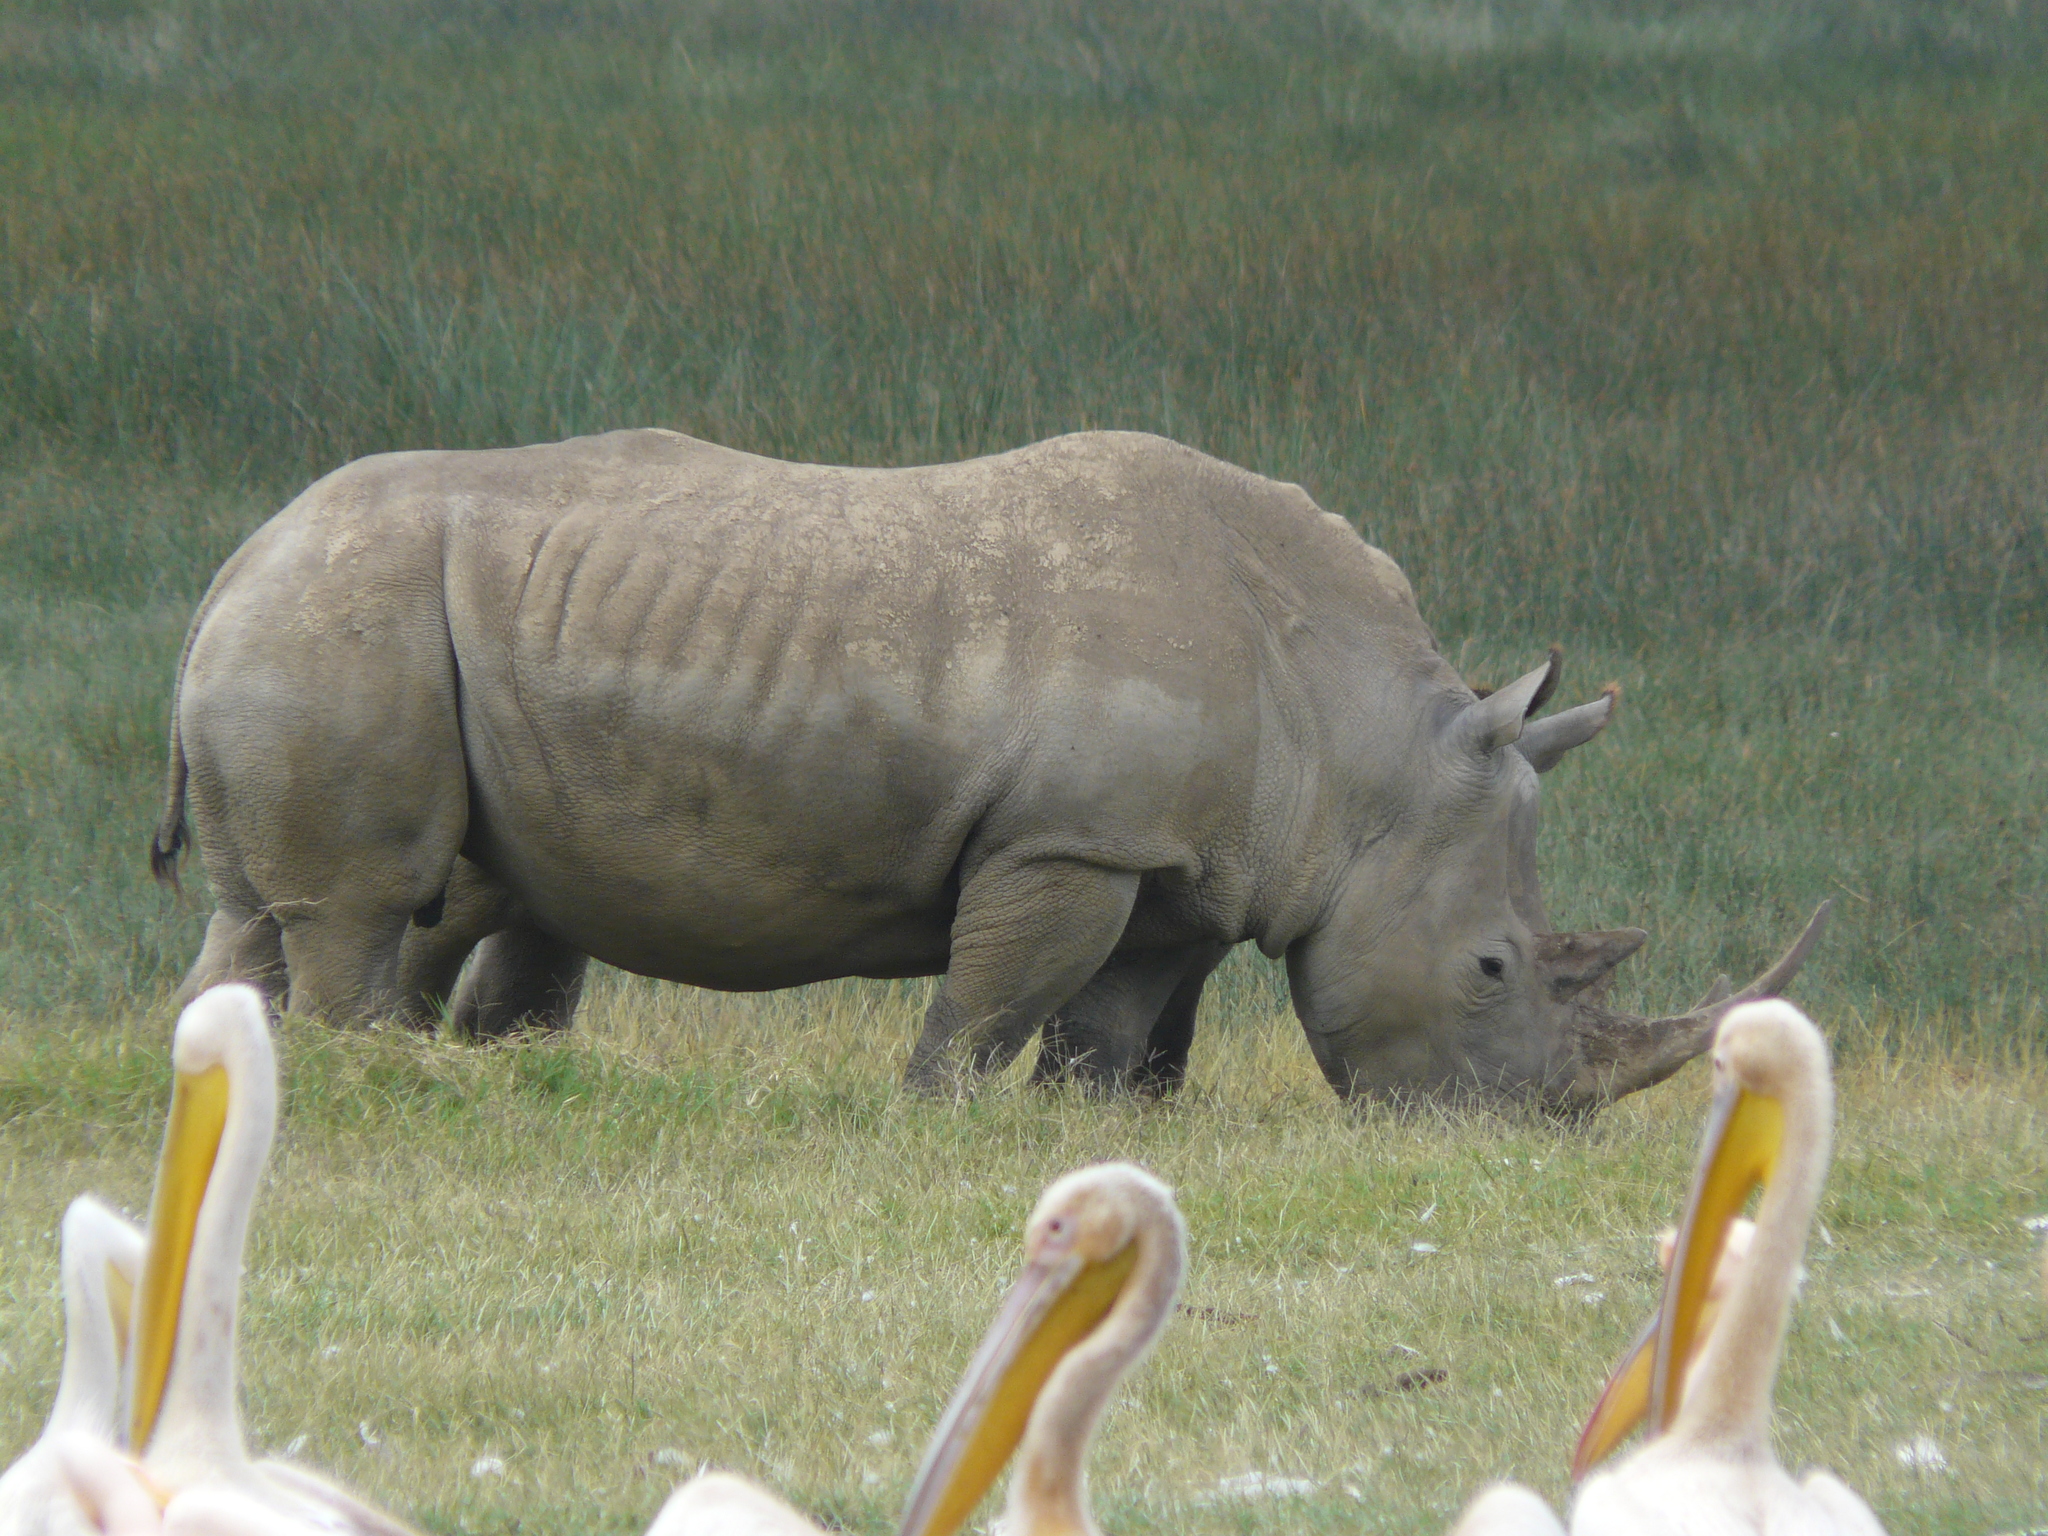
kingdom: Animalia
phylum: Chordata
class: Mammalia
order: Perissodactyla
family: Rhinocerotidae
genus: Ceratotherium
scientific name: Ceratotherium simum
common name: White rhinoceros
